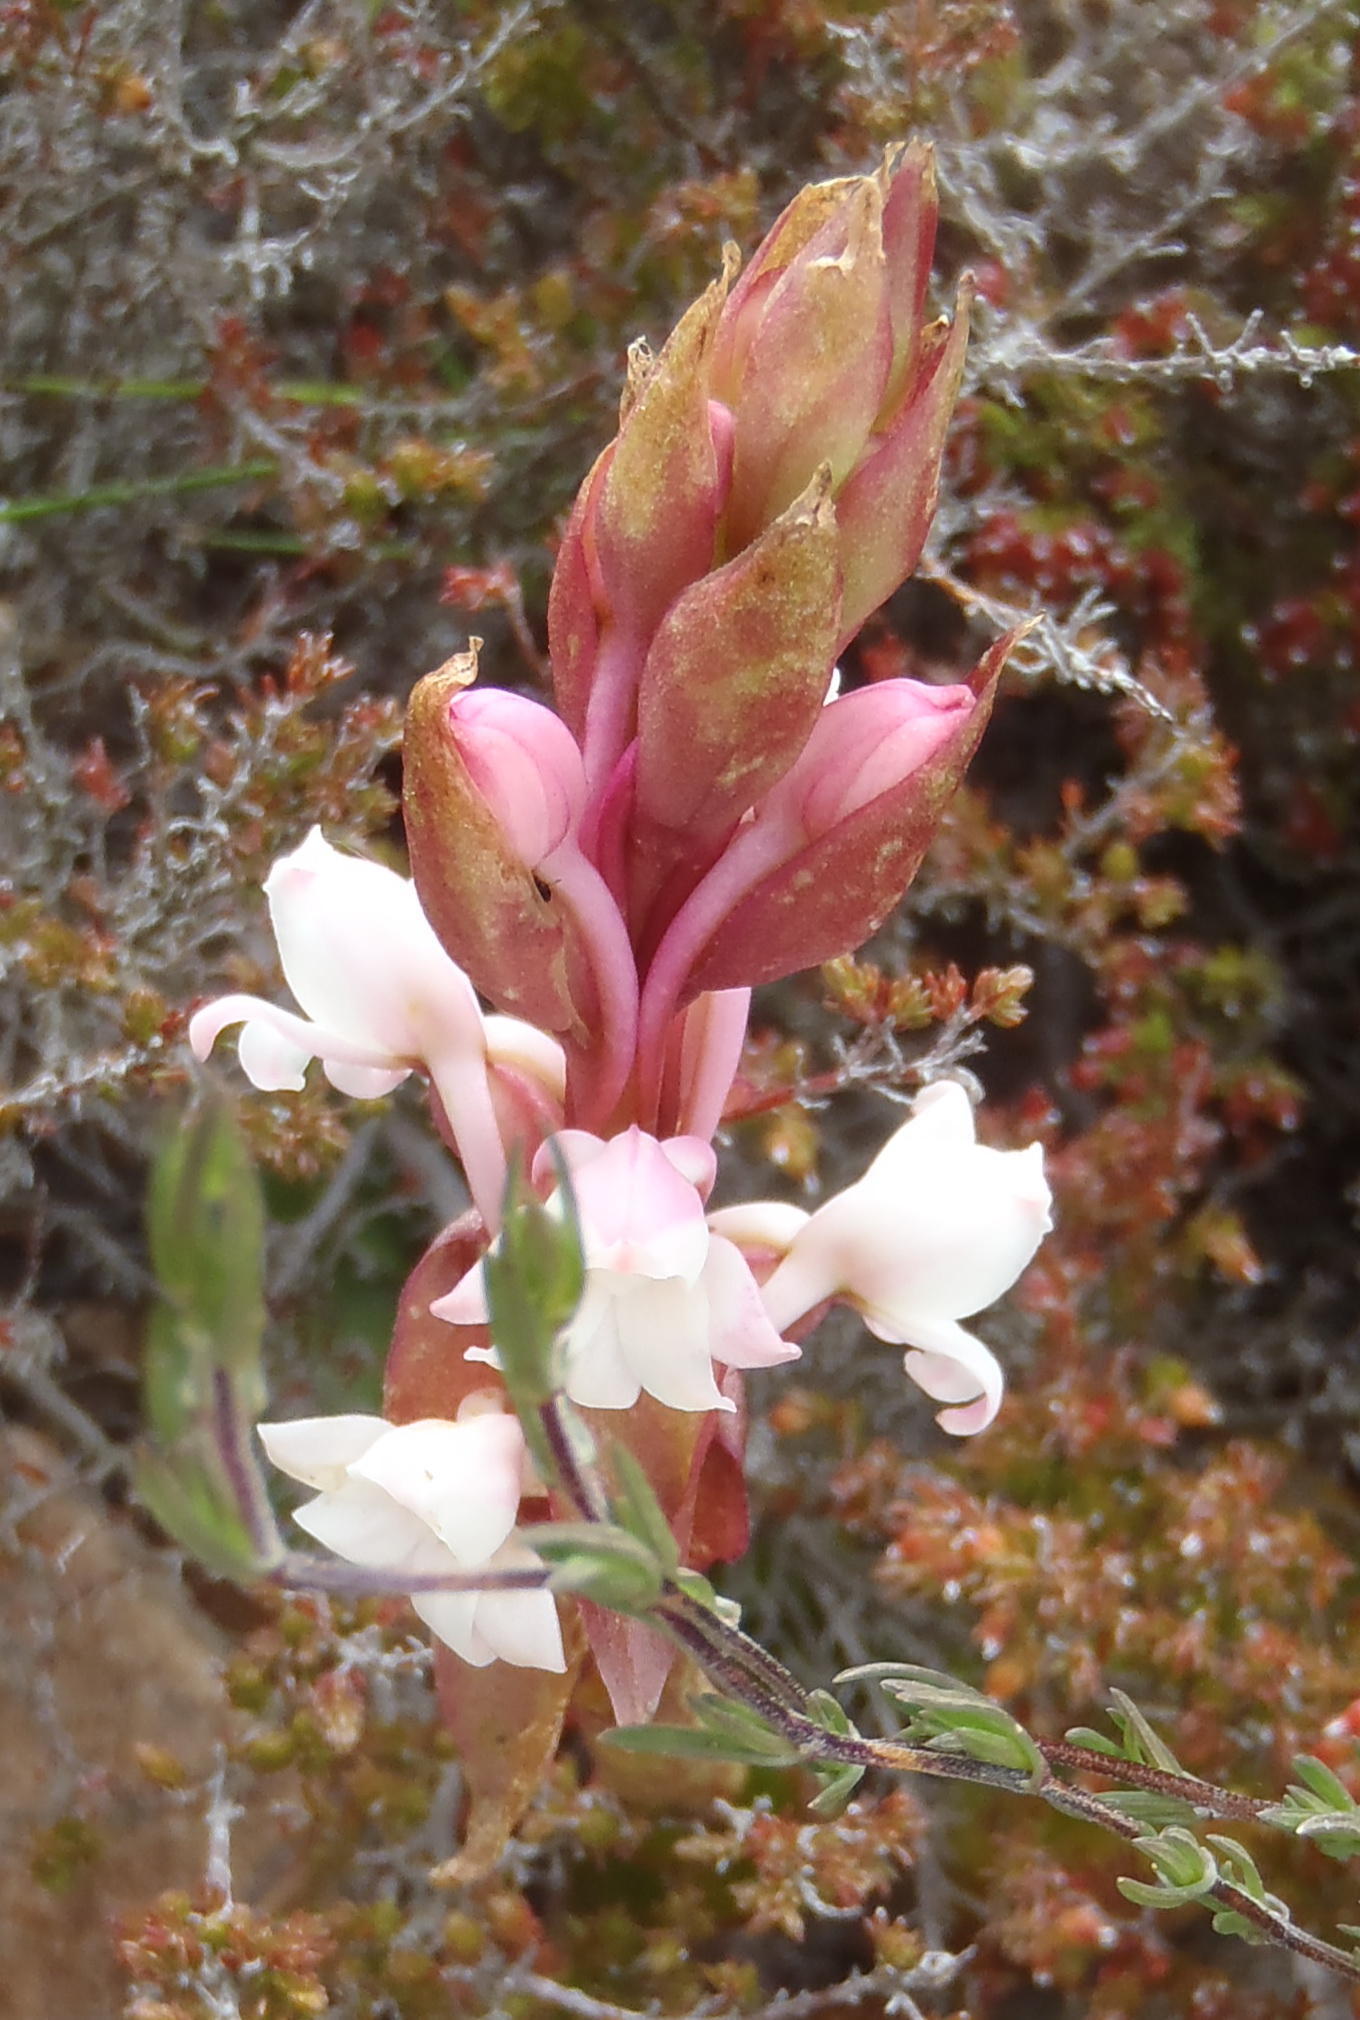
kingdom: Plantae
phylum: Tracheophyta
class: Liliopsida
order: Asparagales
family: Orchidaceae
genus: Satyrium
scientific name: Satyrium acuminatum
